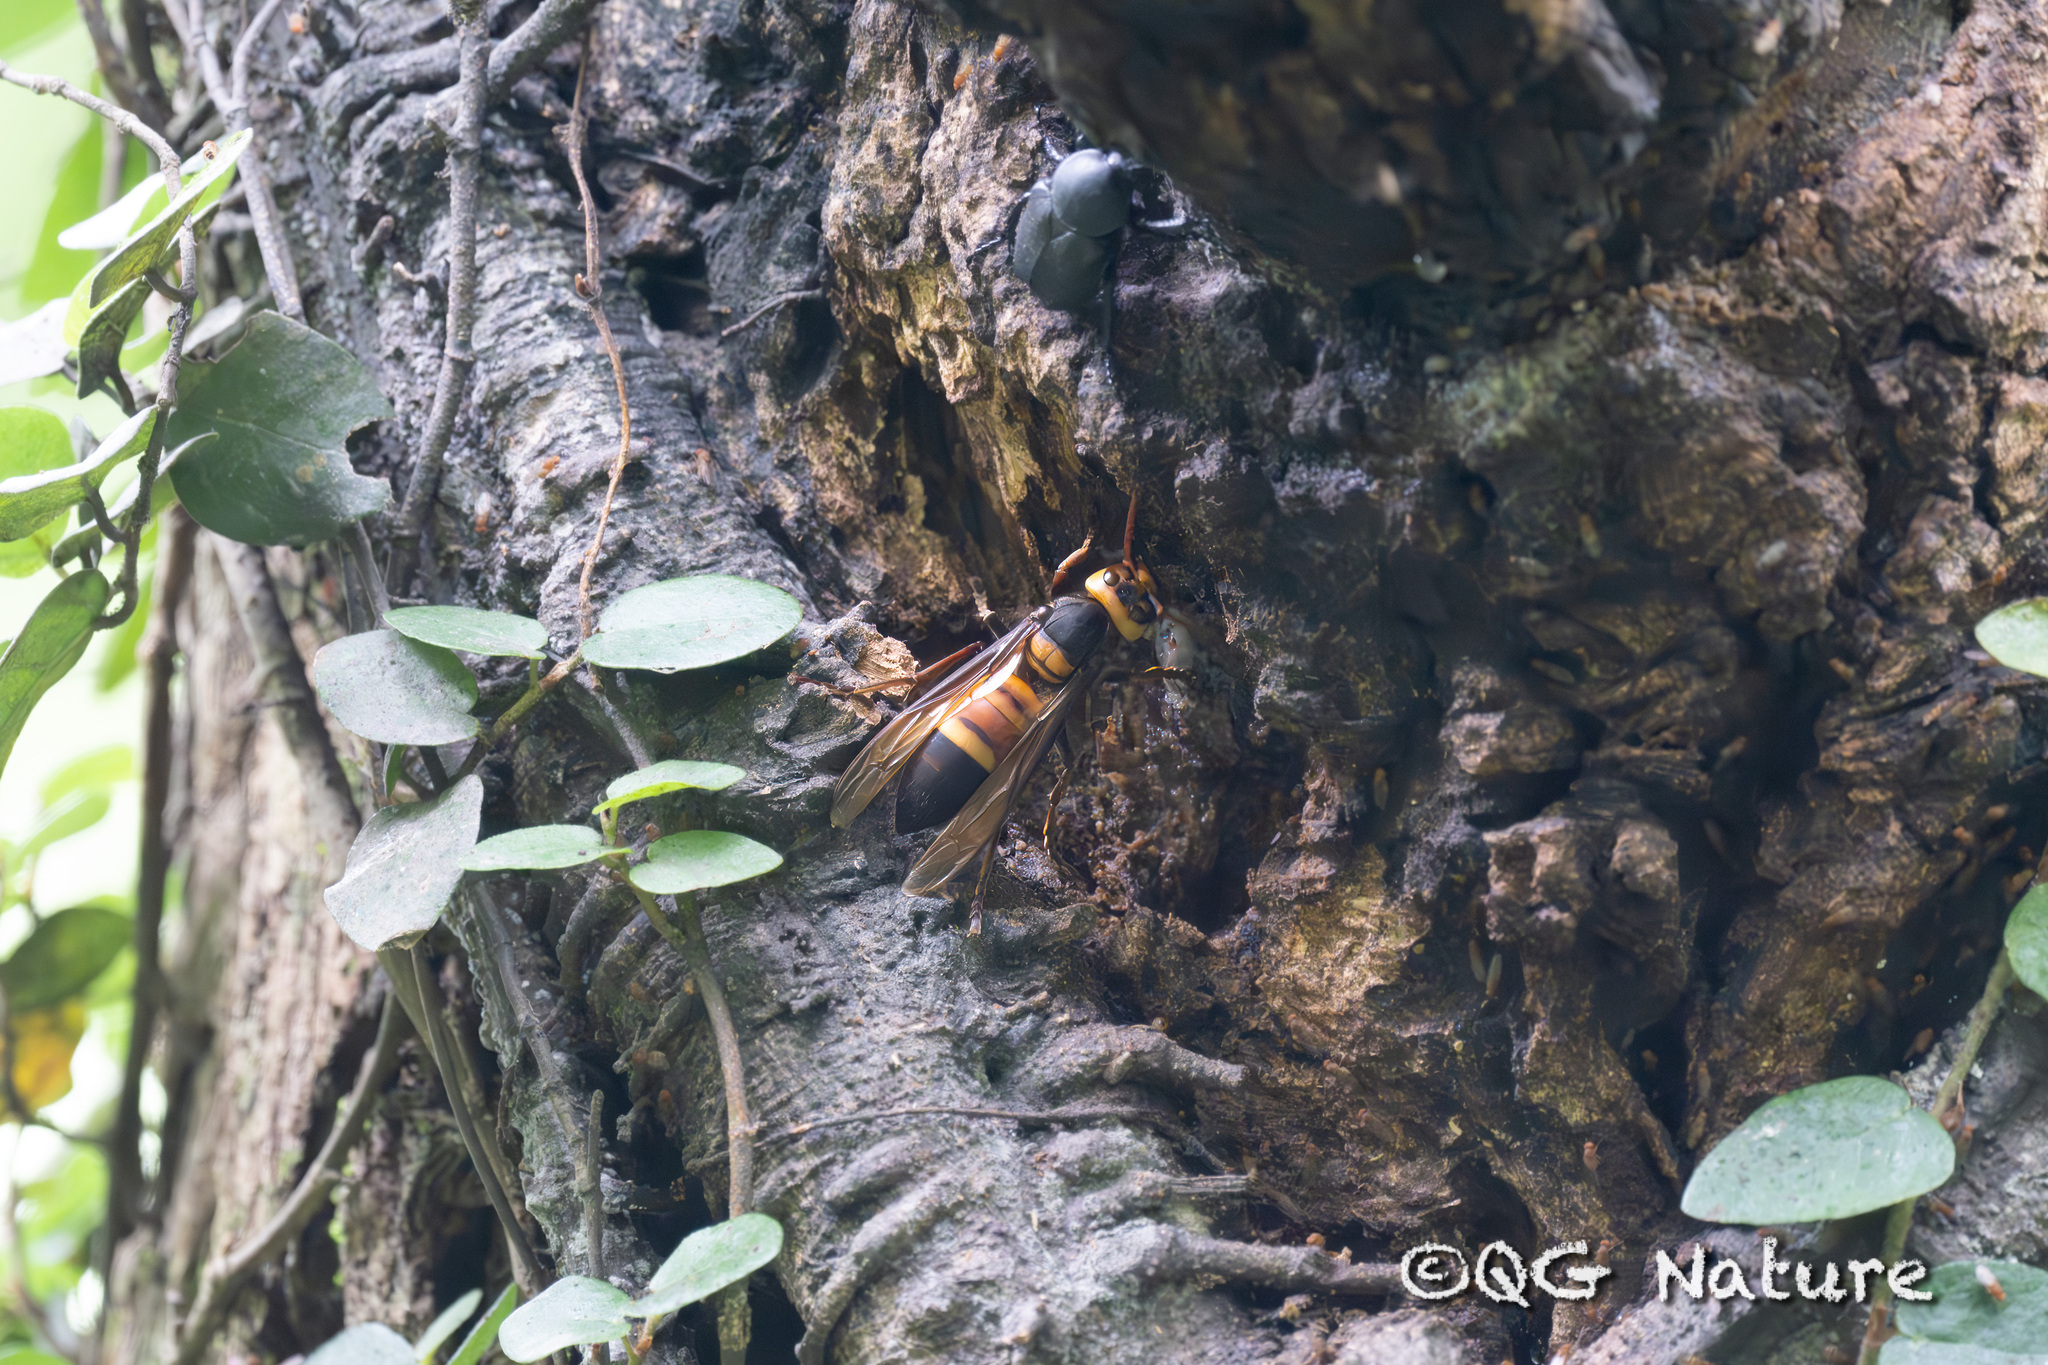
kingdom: Animalia
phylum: Arthropoda
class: Insecta
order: Hymenoptera
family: Vespidae
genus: Vespa
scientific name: Vespa soror
